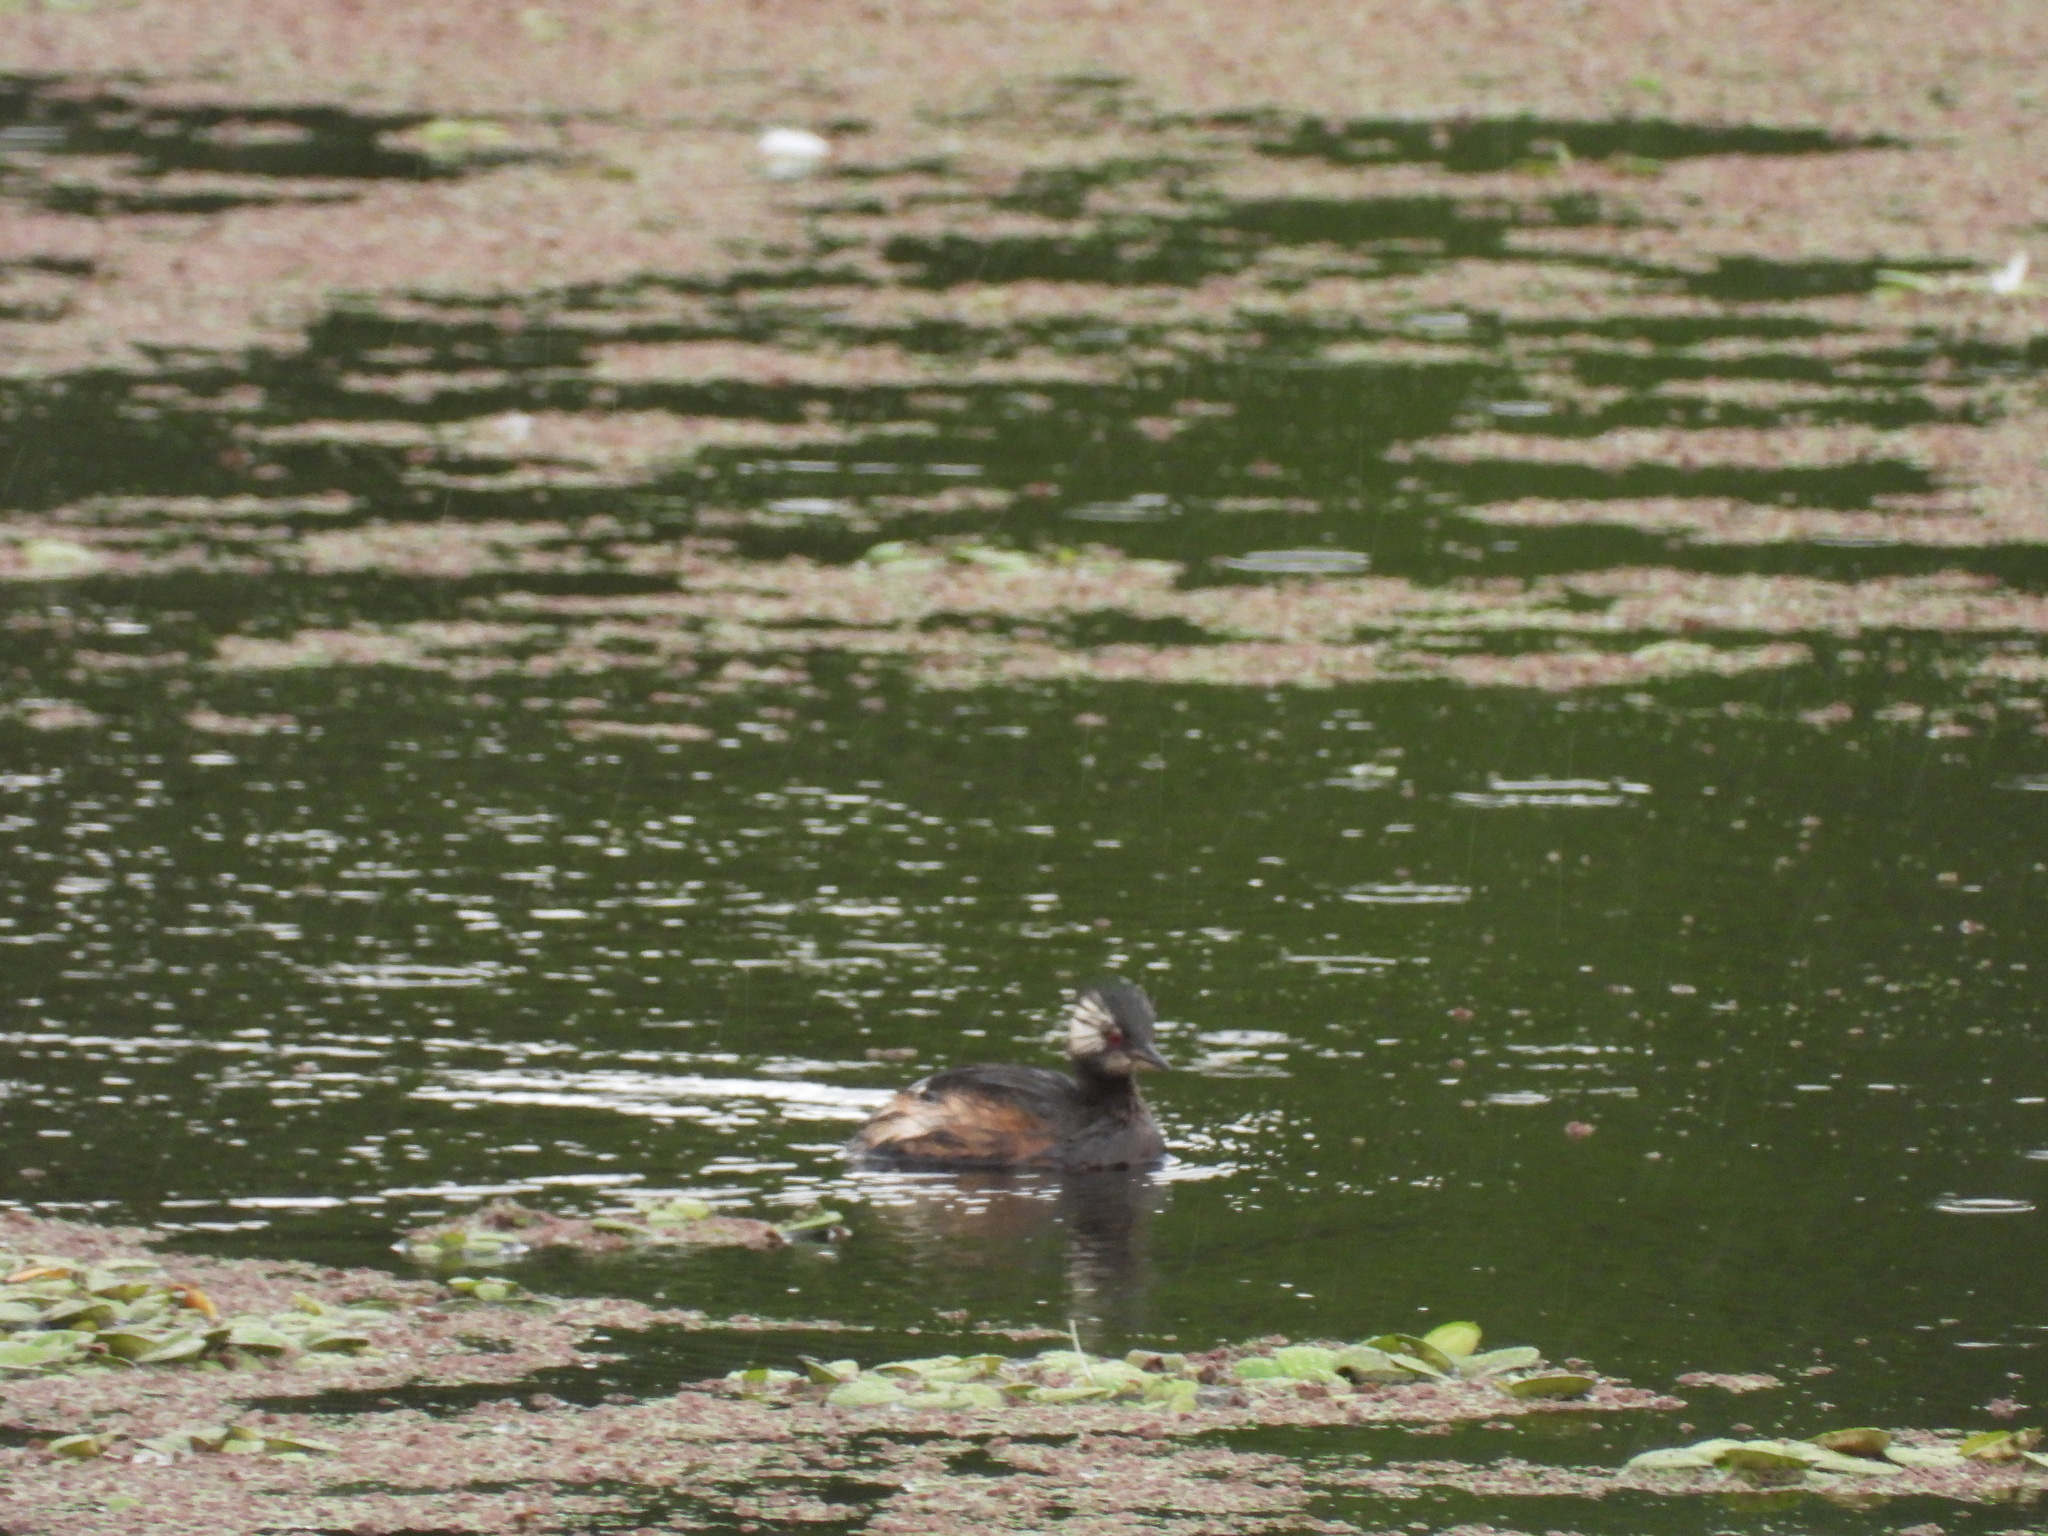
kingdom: Animalia
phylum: Chordata
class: Aves
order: Podicipediformes
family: Podicipedidae
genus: Rollandia
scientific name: Rollandia rolland
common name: White-tufted grebe
